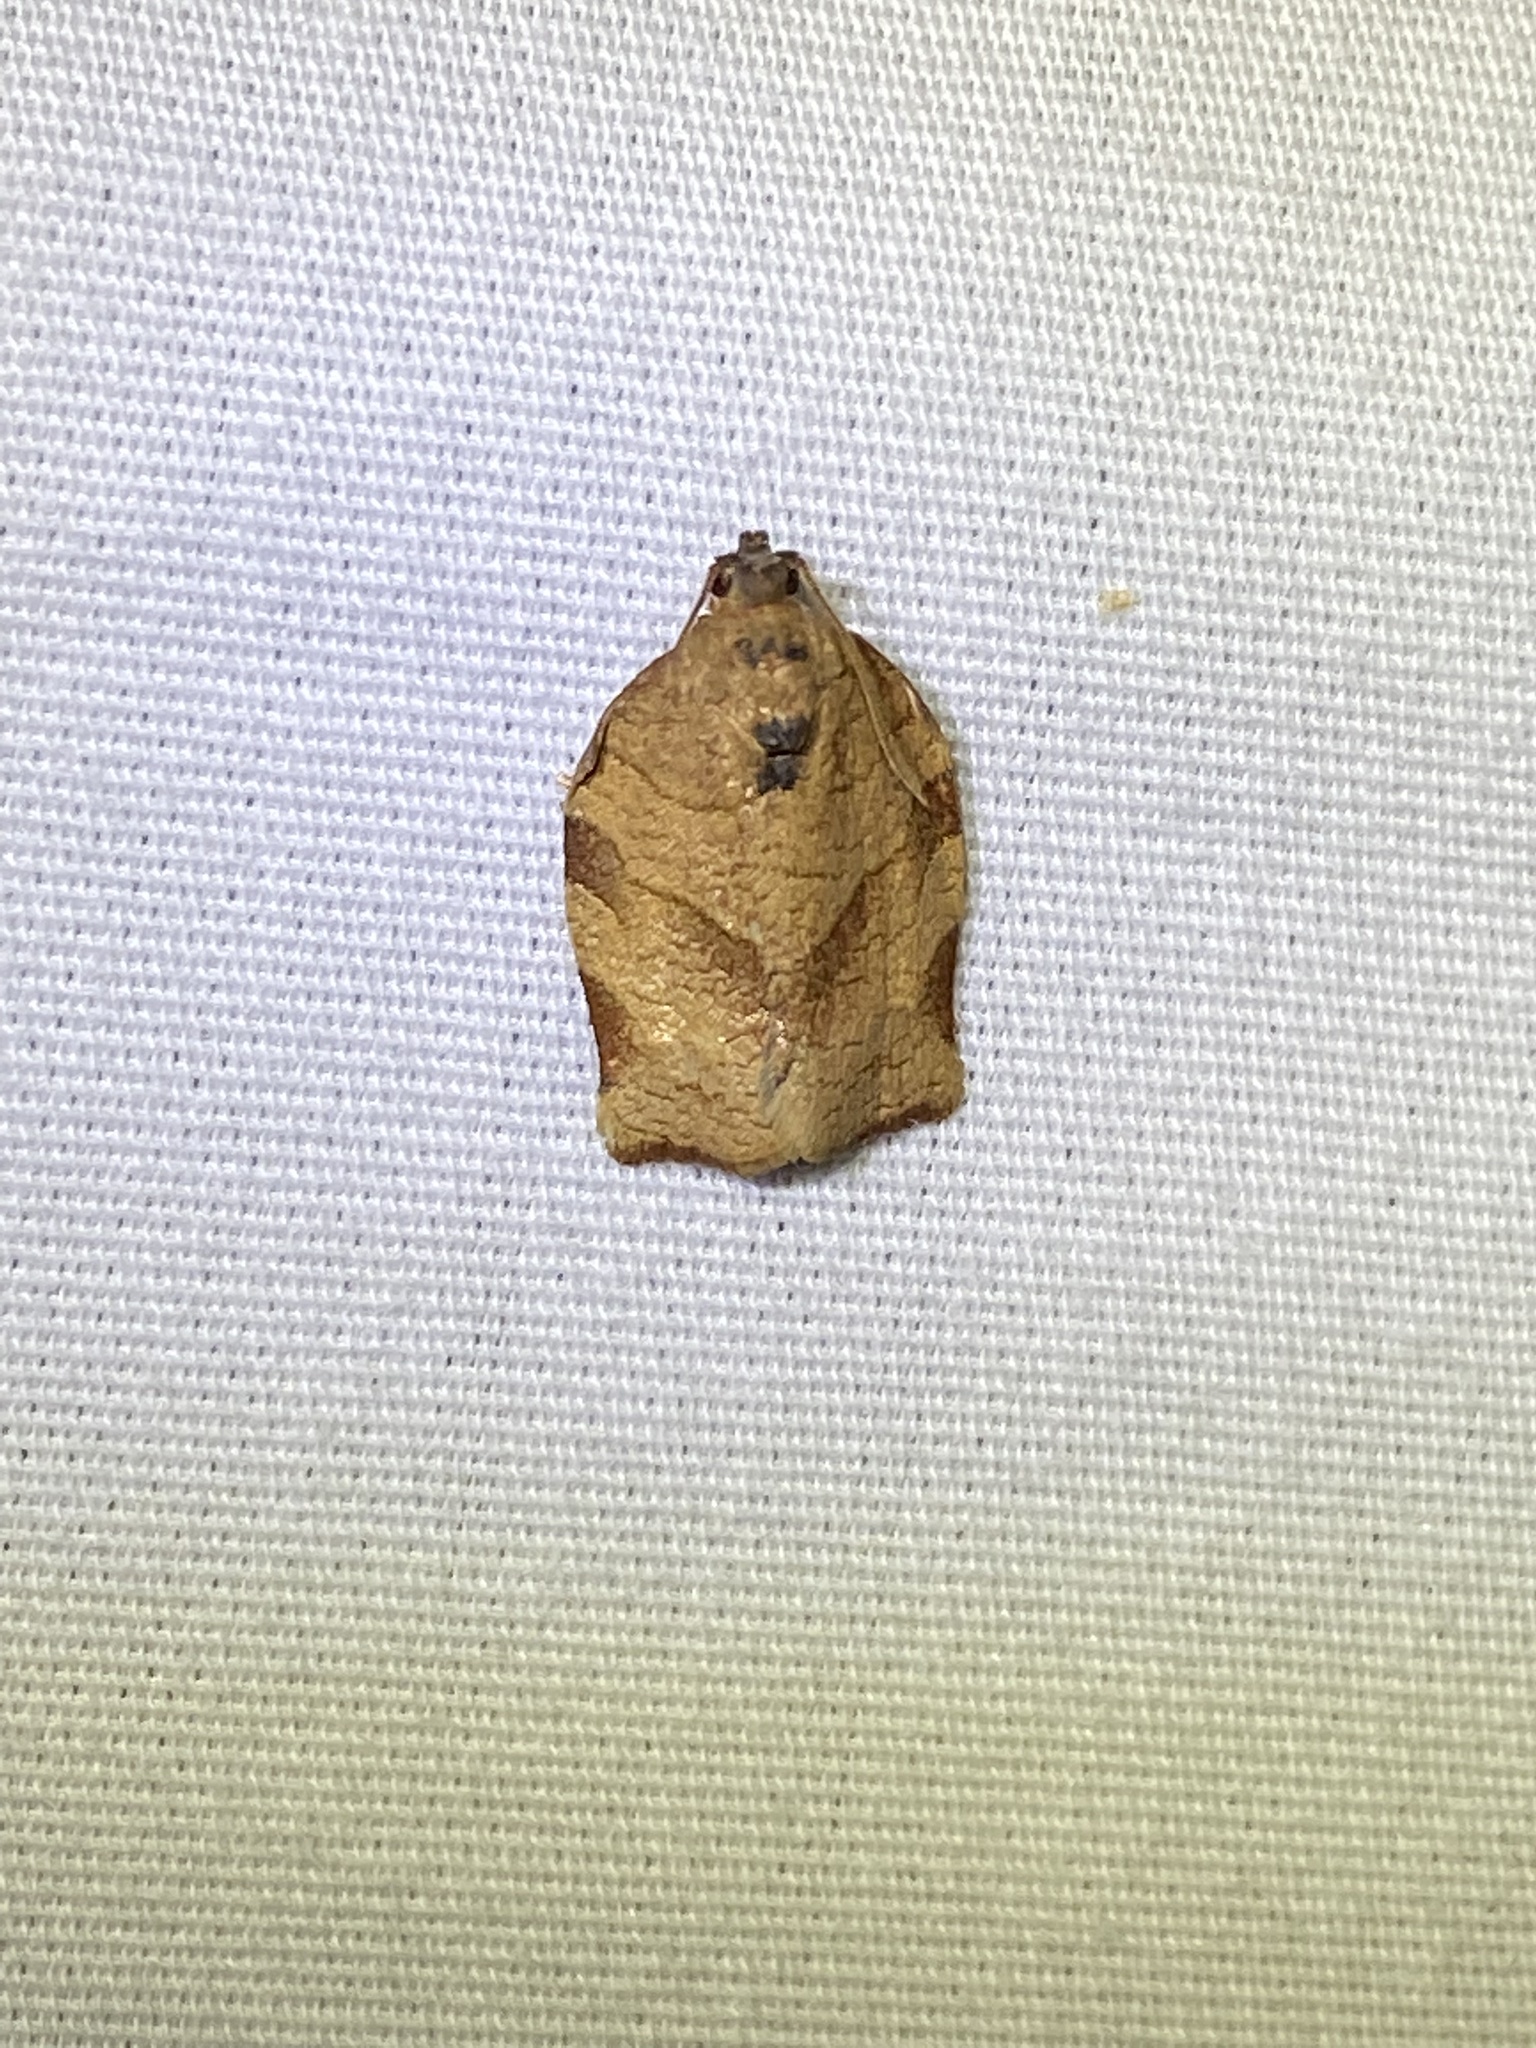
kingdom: Animalia
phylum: Arthropoda
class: Insecta
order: Lepidoptera
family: Tortricidae
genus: Choristoneura
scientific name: Choristoneura rosaceana
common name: Oblique-banded leafroller moth
